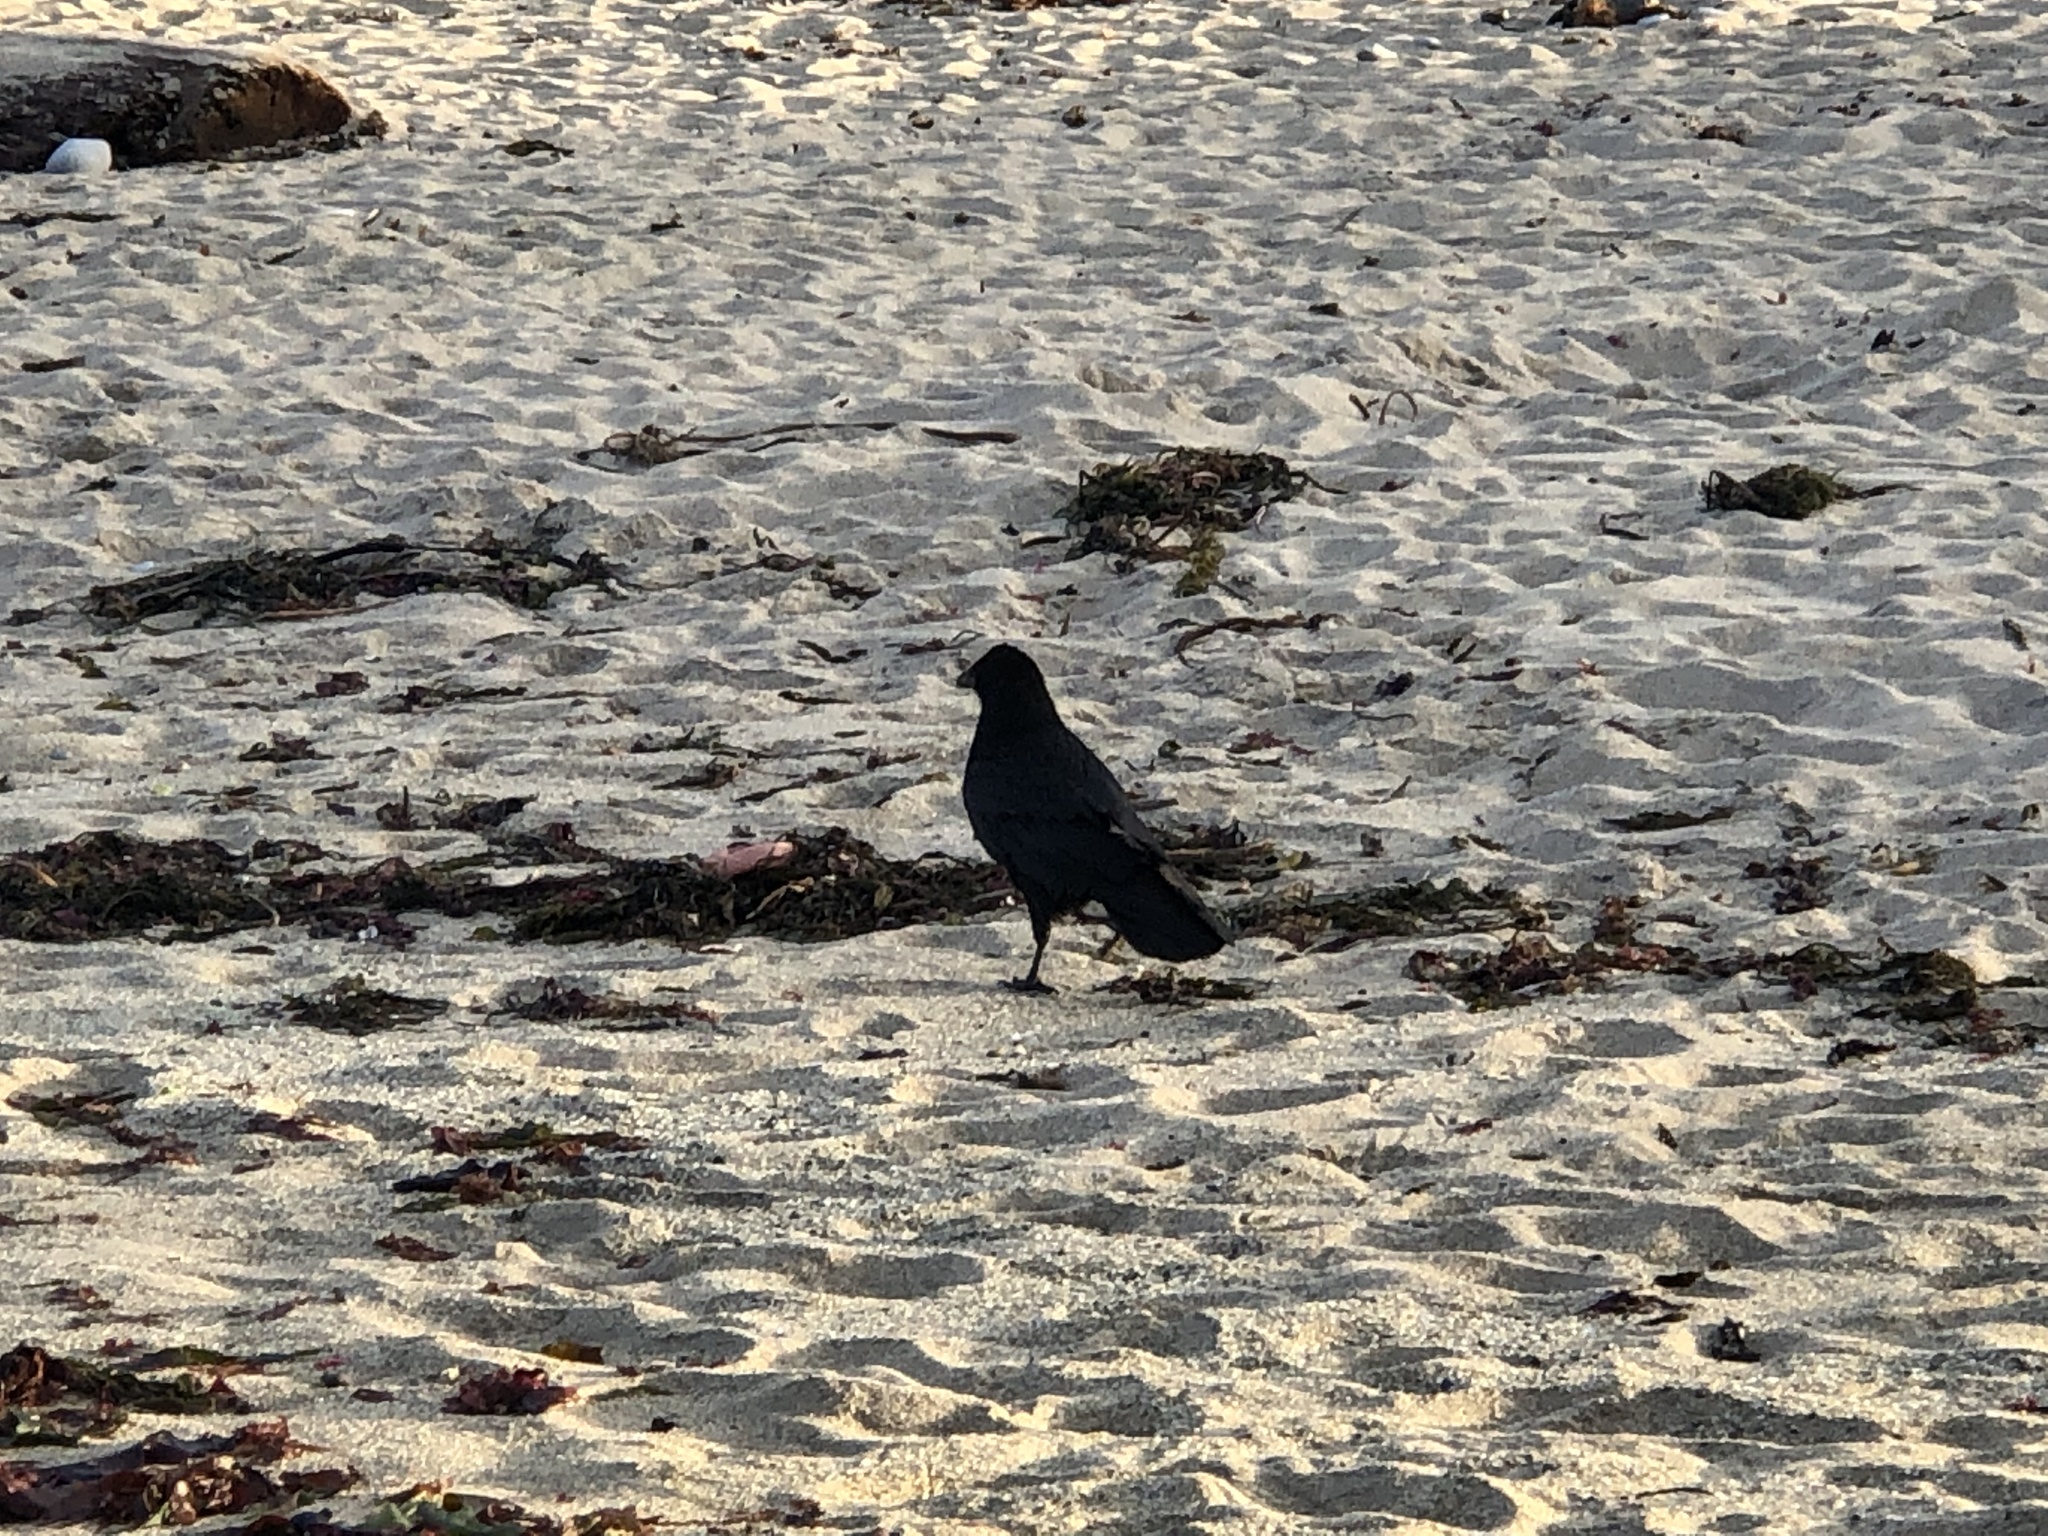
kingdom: Animalia
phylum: Chordata
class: Aves
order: Passeriformes
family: Corvidae
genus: Corvus
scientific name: Corvus brachyrhynchos
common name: American crow
